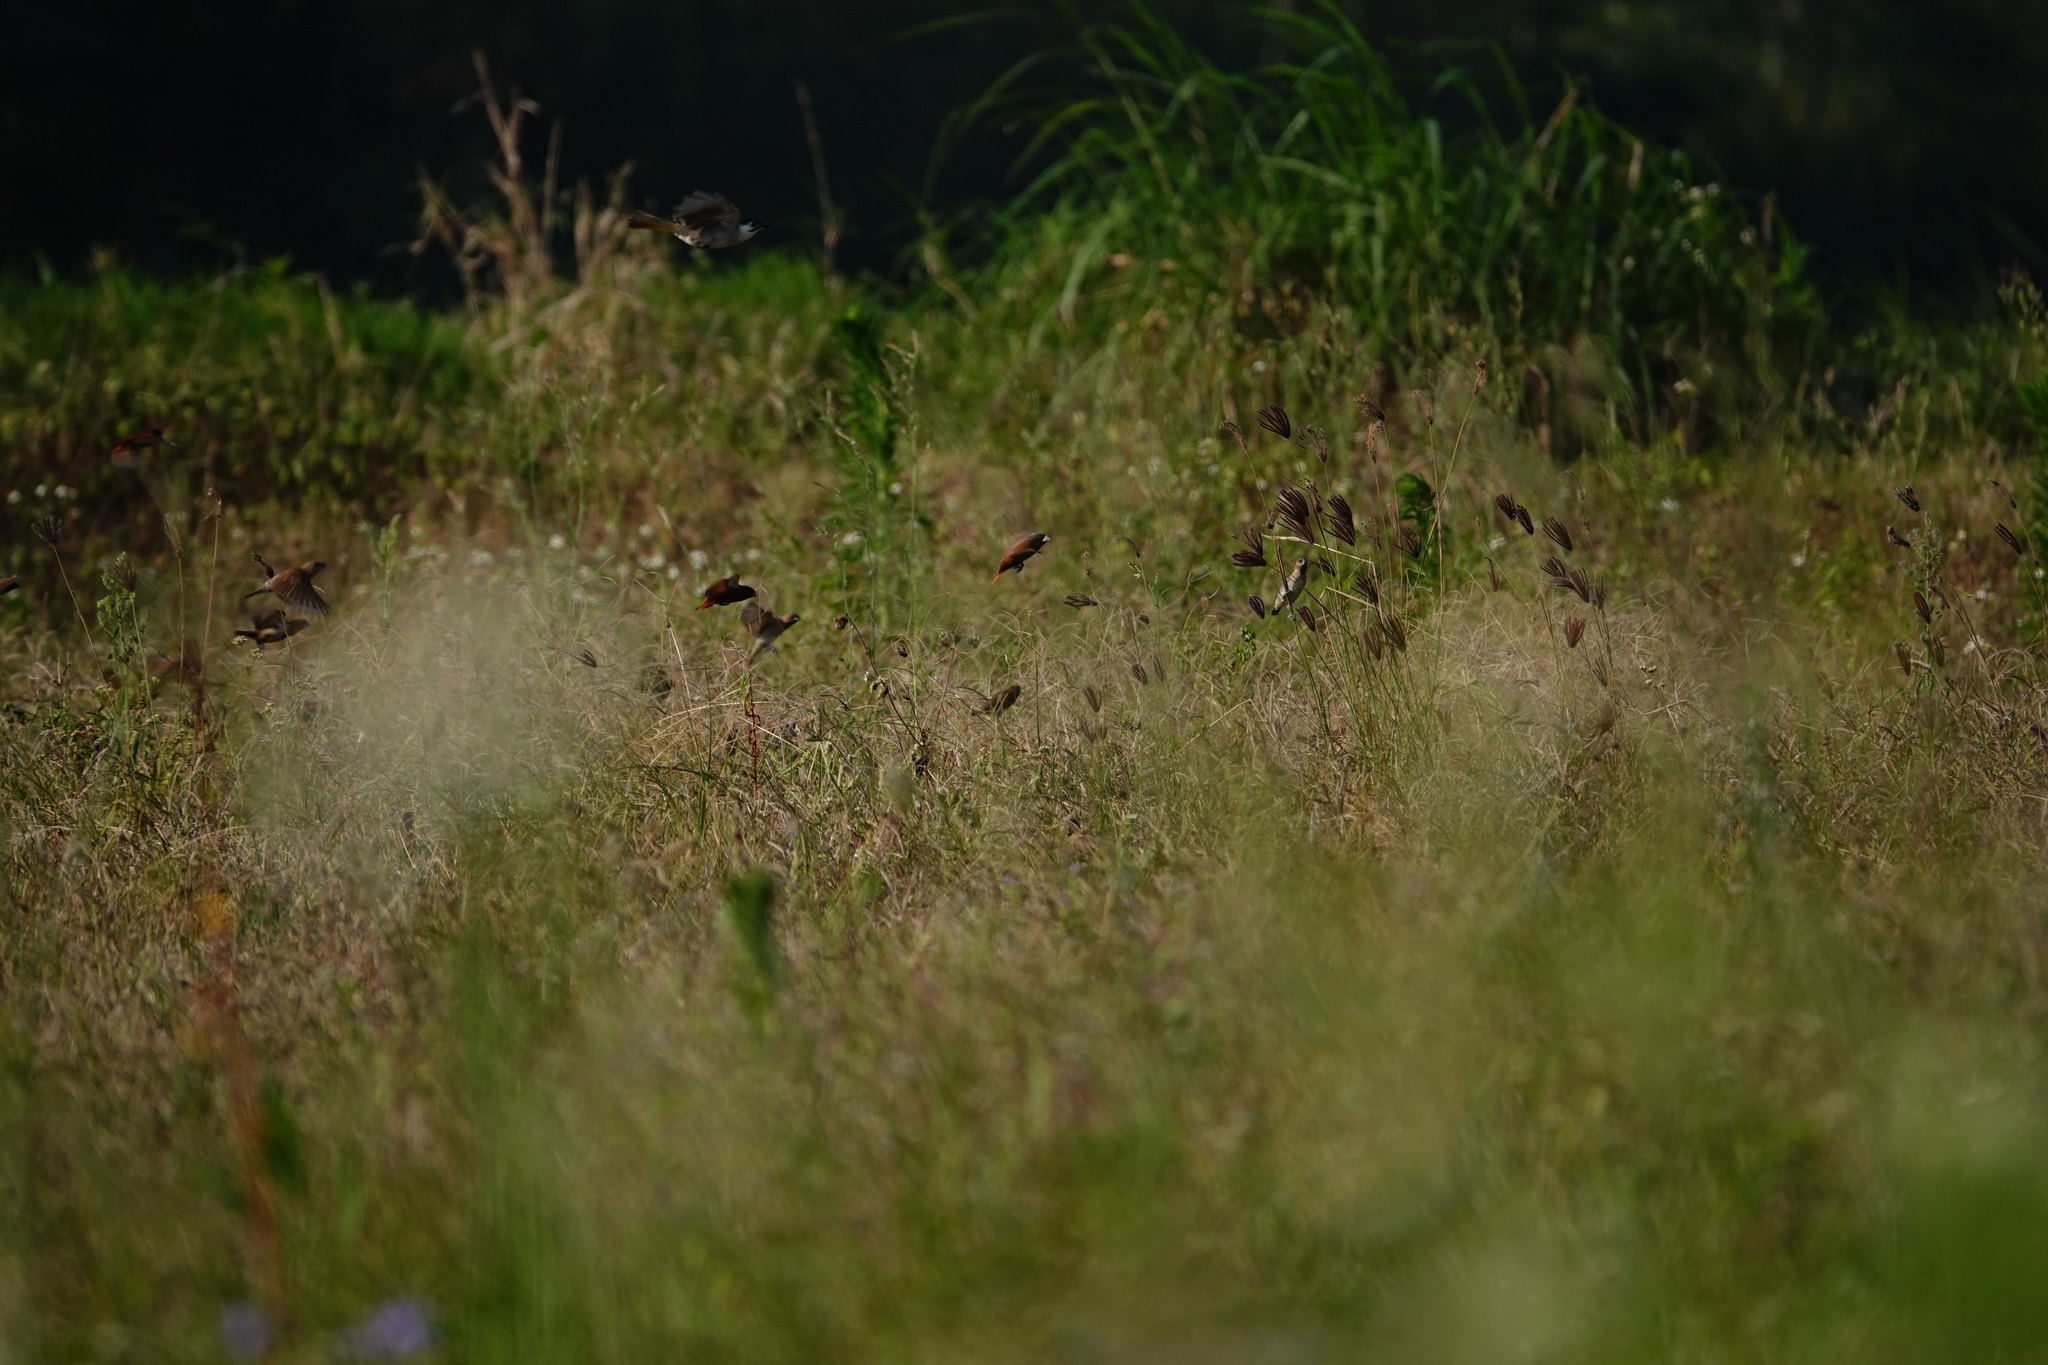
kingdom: Animalia
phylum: Chordata
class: Aves
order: Passeriformes
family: Estrildidae
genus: Lonchura
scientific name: Lonchura atricapilla
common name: Chestnut munia
